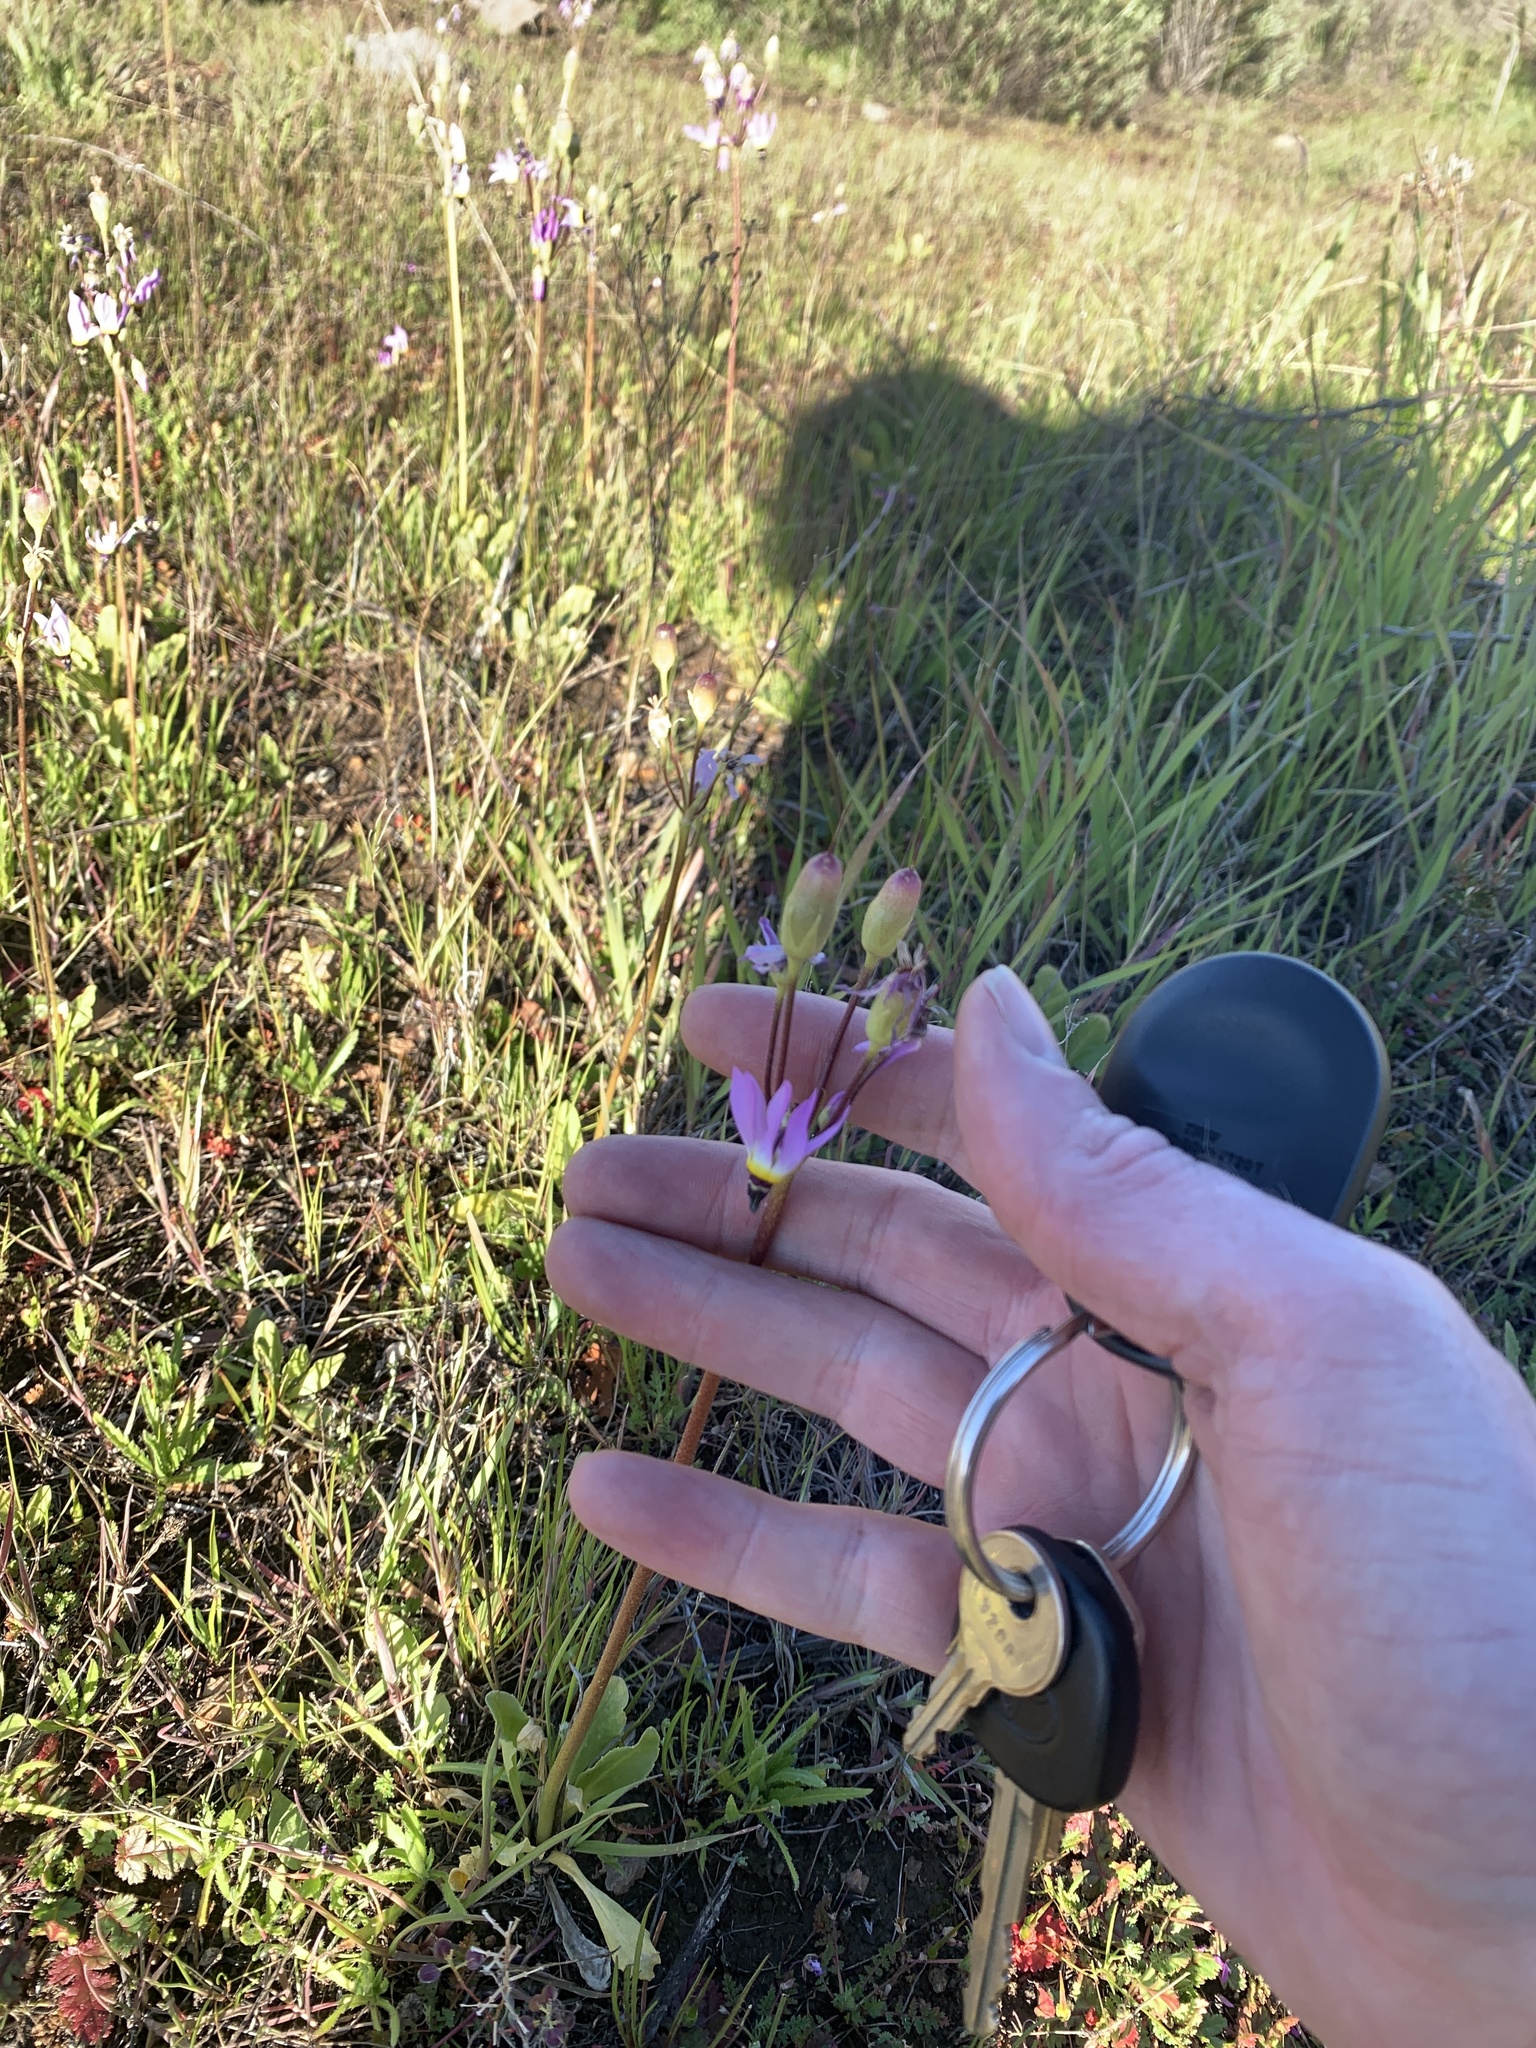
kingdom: Plantae
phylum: Tracheophyta
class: Magnoliopsida
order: Ericales
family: Primulaceae
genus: Dodecatheon
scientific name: Dodecatheon clevelandii
